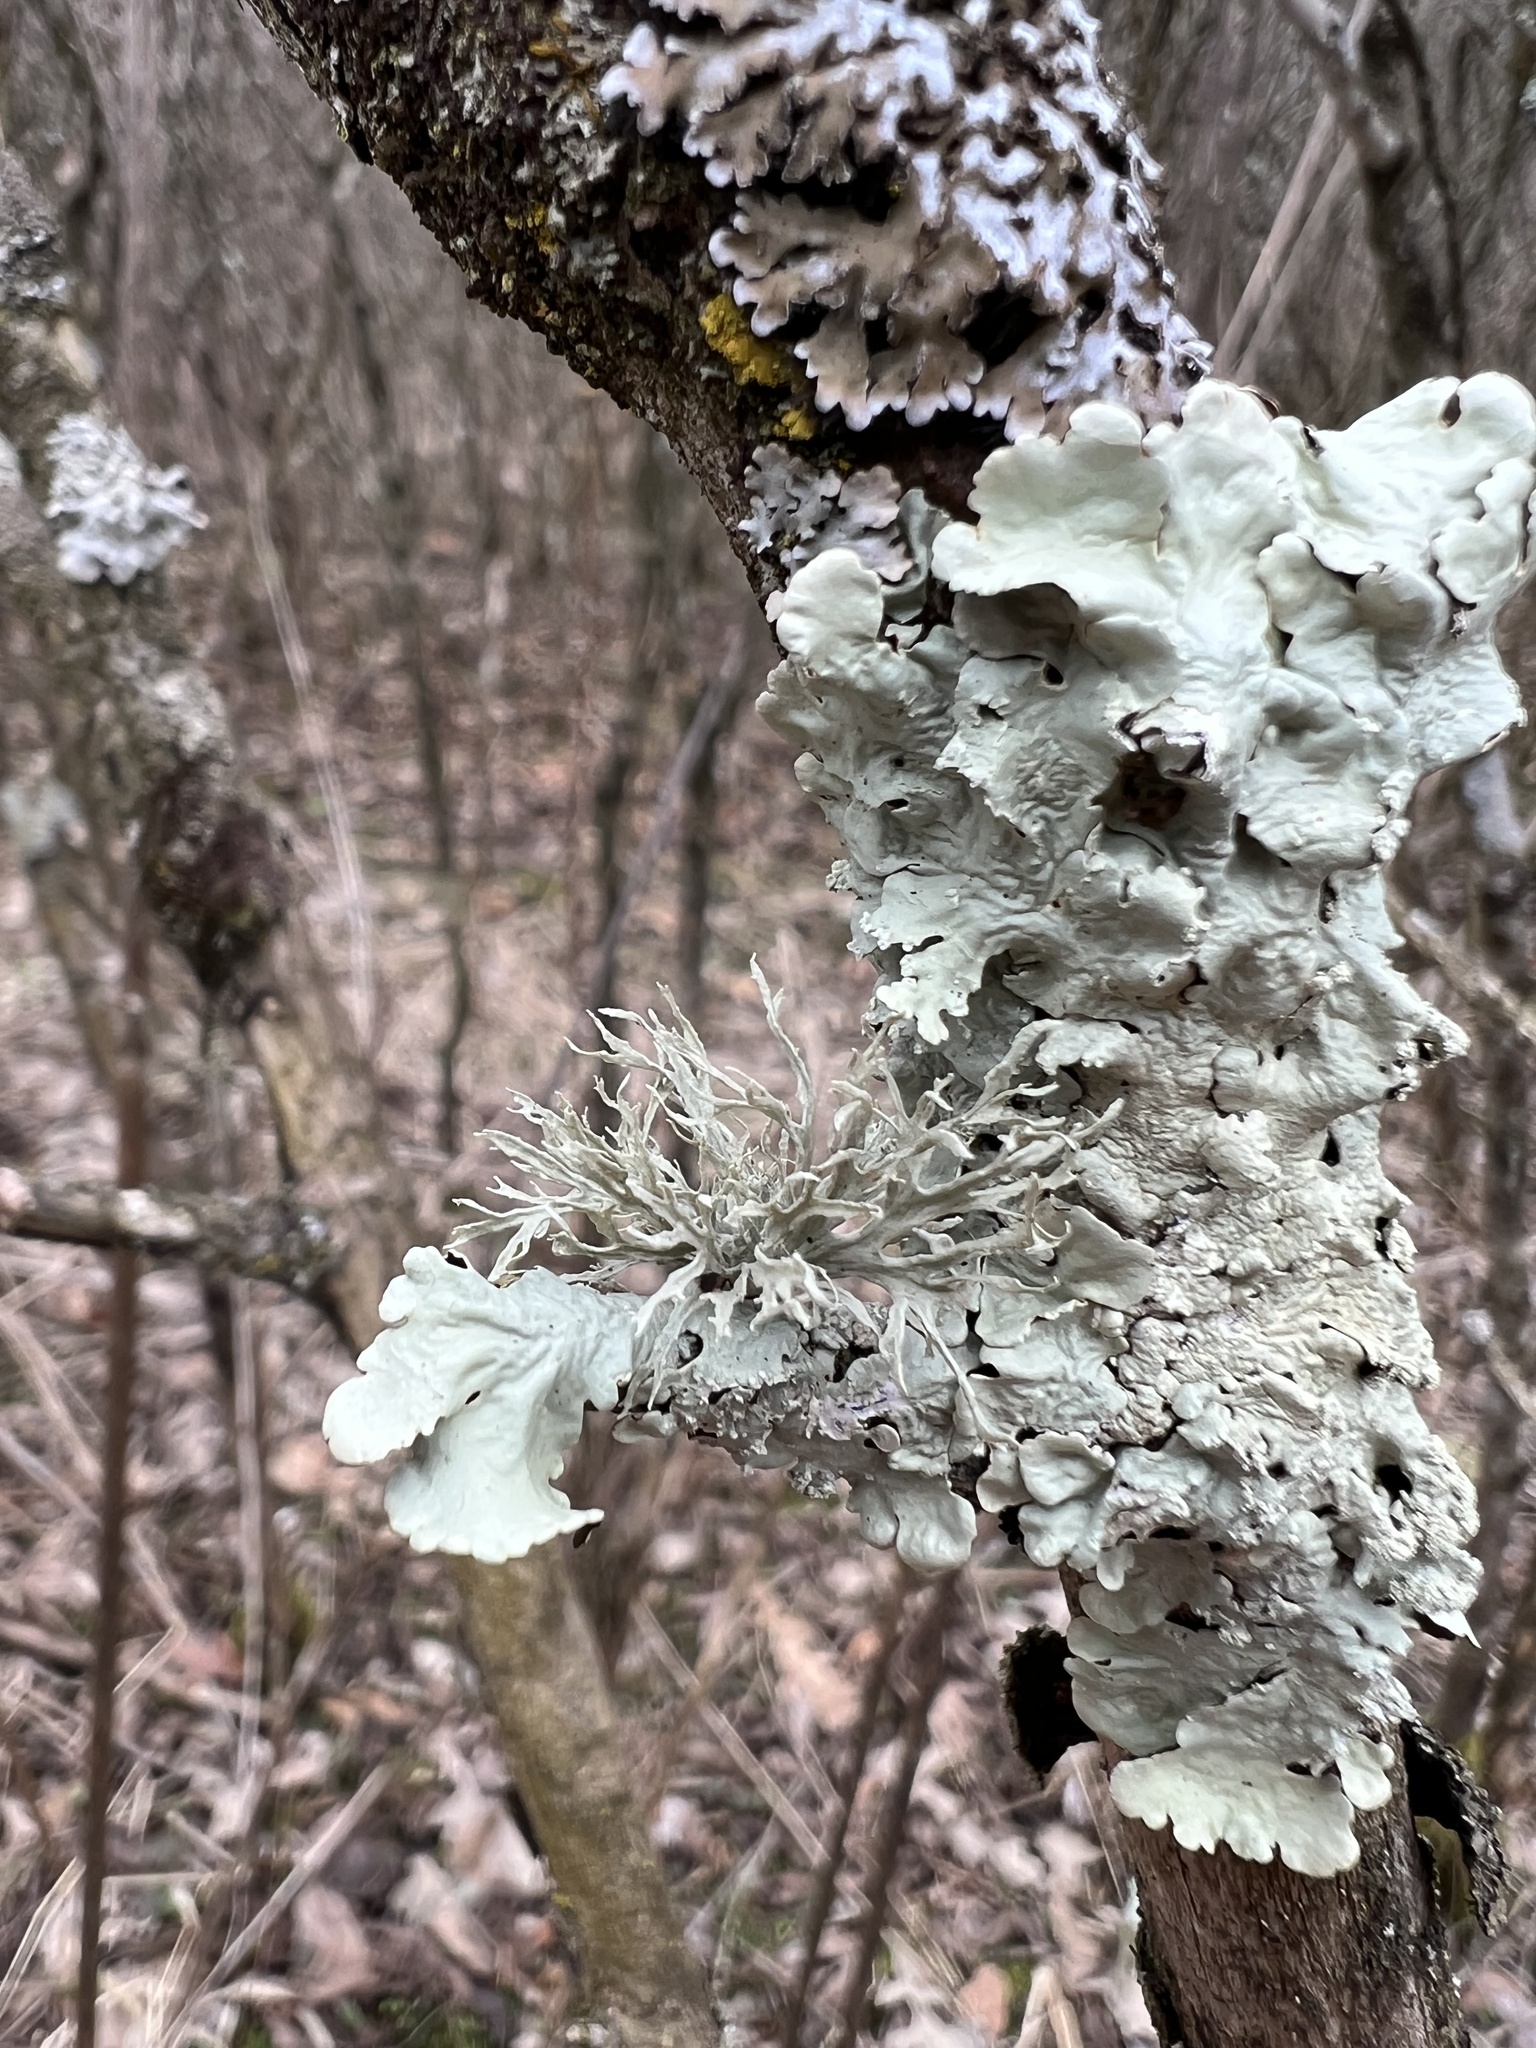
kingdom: Fungi
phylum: Ascomycota
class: Lecanoromycetes
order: Lecanorales
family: Ramalinaceae
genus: Ramalina
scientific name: Ramalina americana
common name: Sinewed bush lichen
